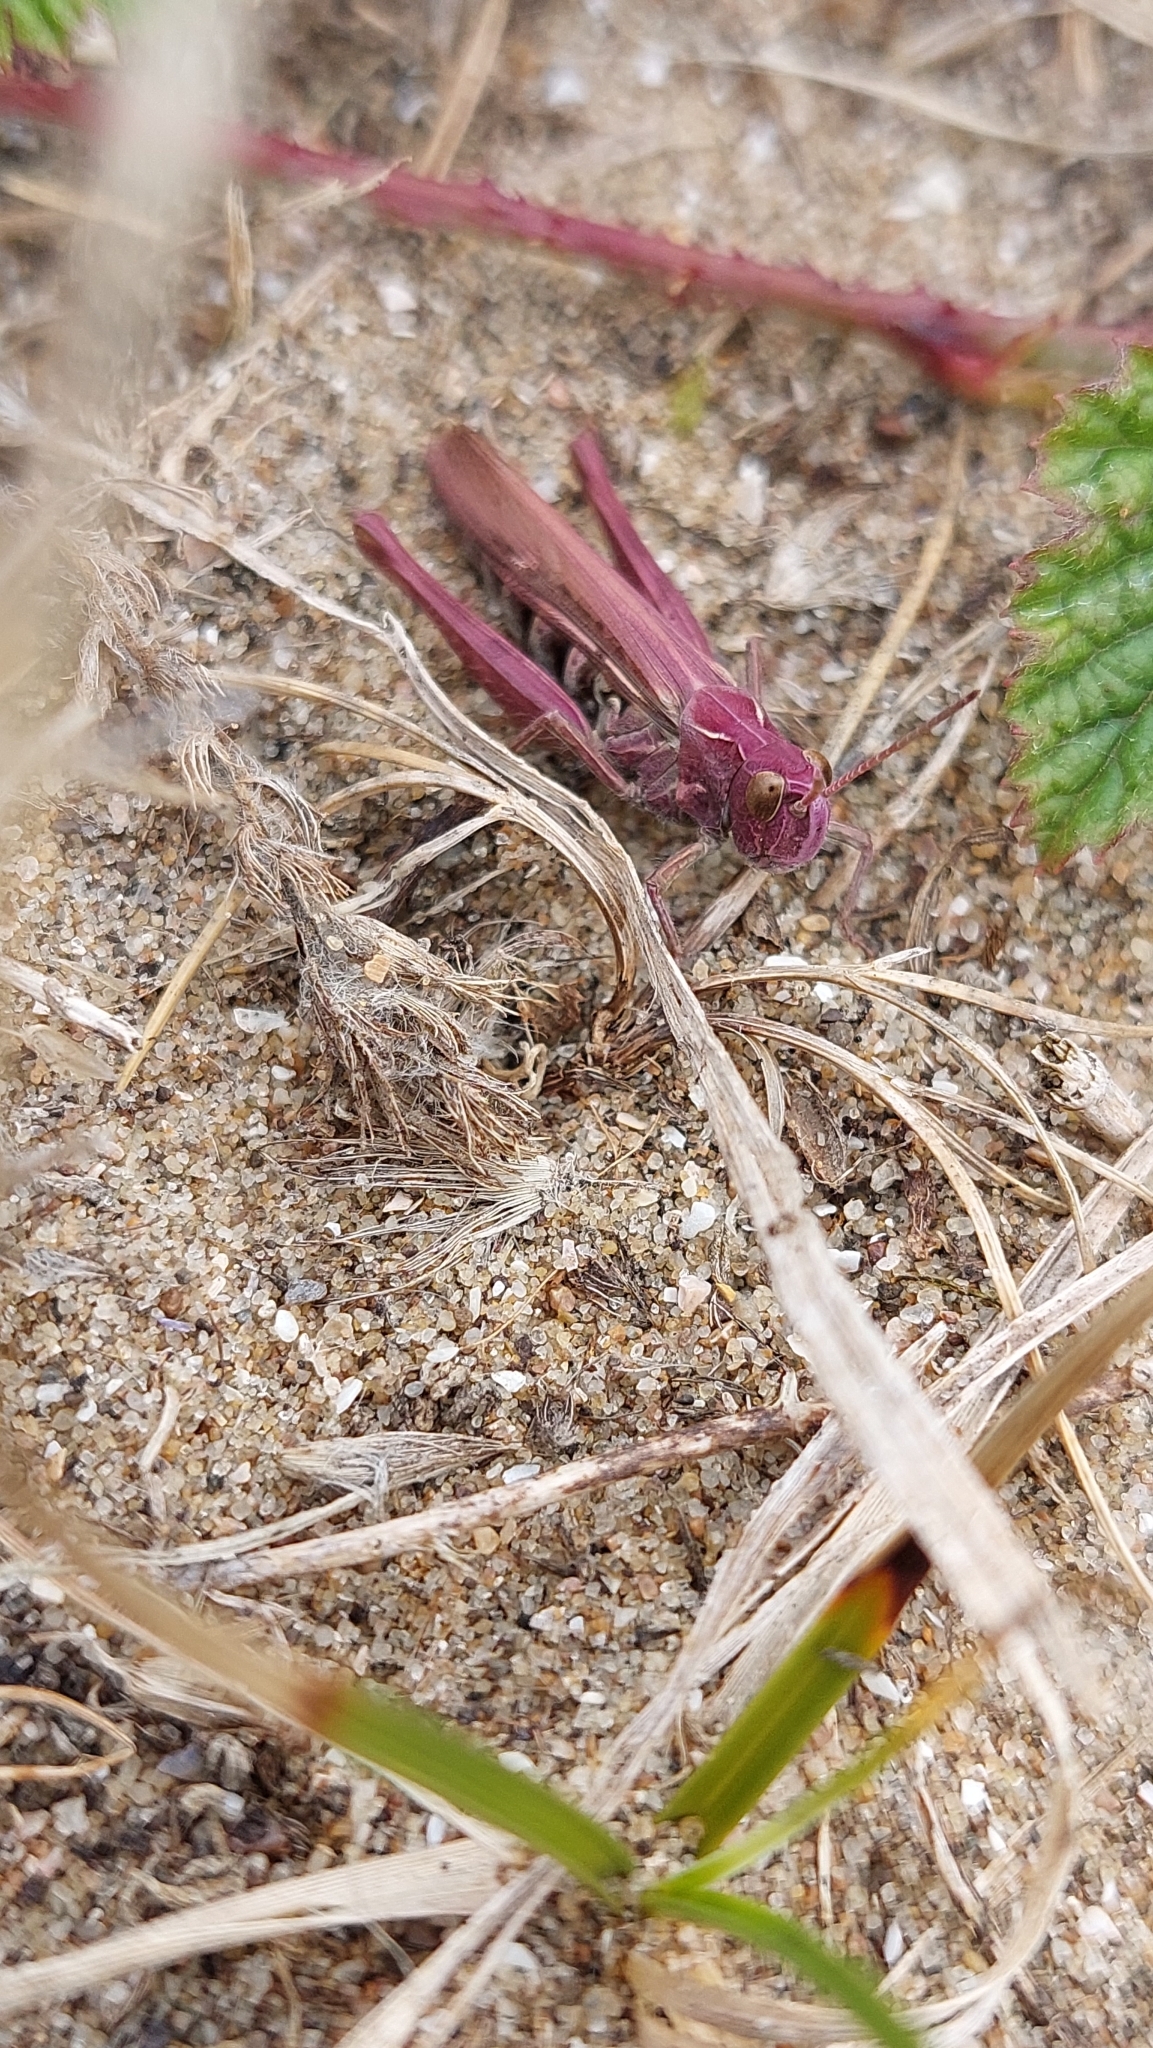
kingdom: Animalia
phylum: Arthropoda
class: Insecta
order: Orthoptera
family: Acrididae
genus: Chorthippus
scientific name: Chorthippus brunneus
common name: Field grasshopper
